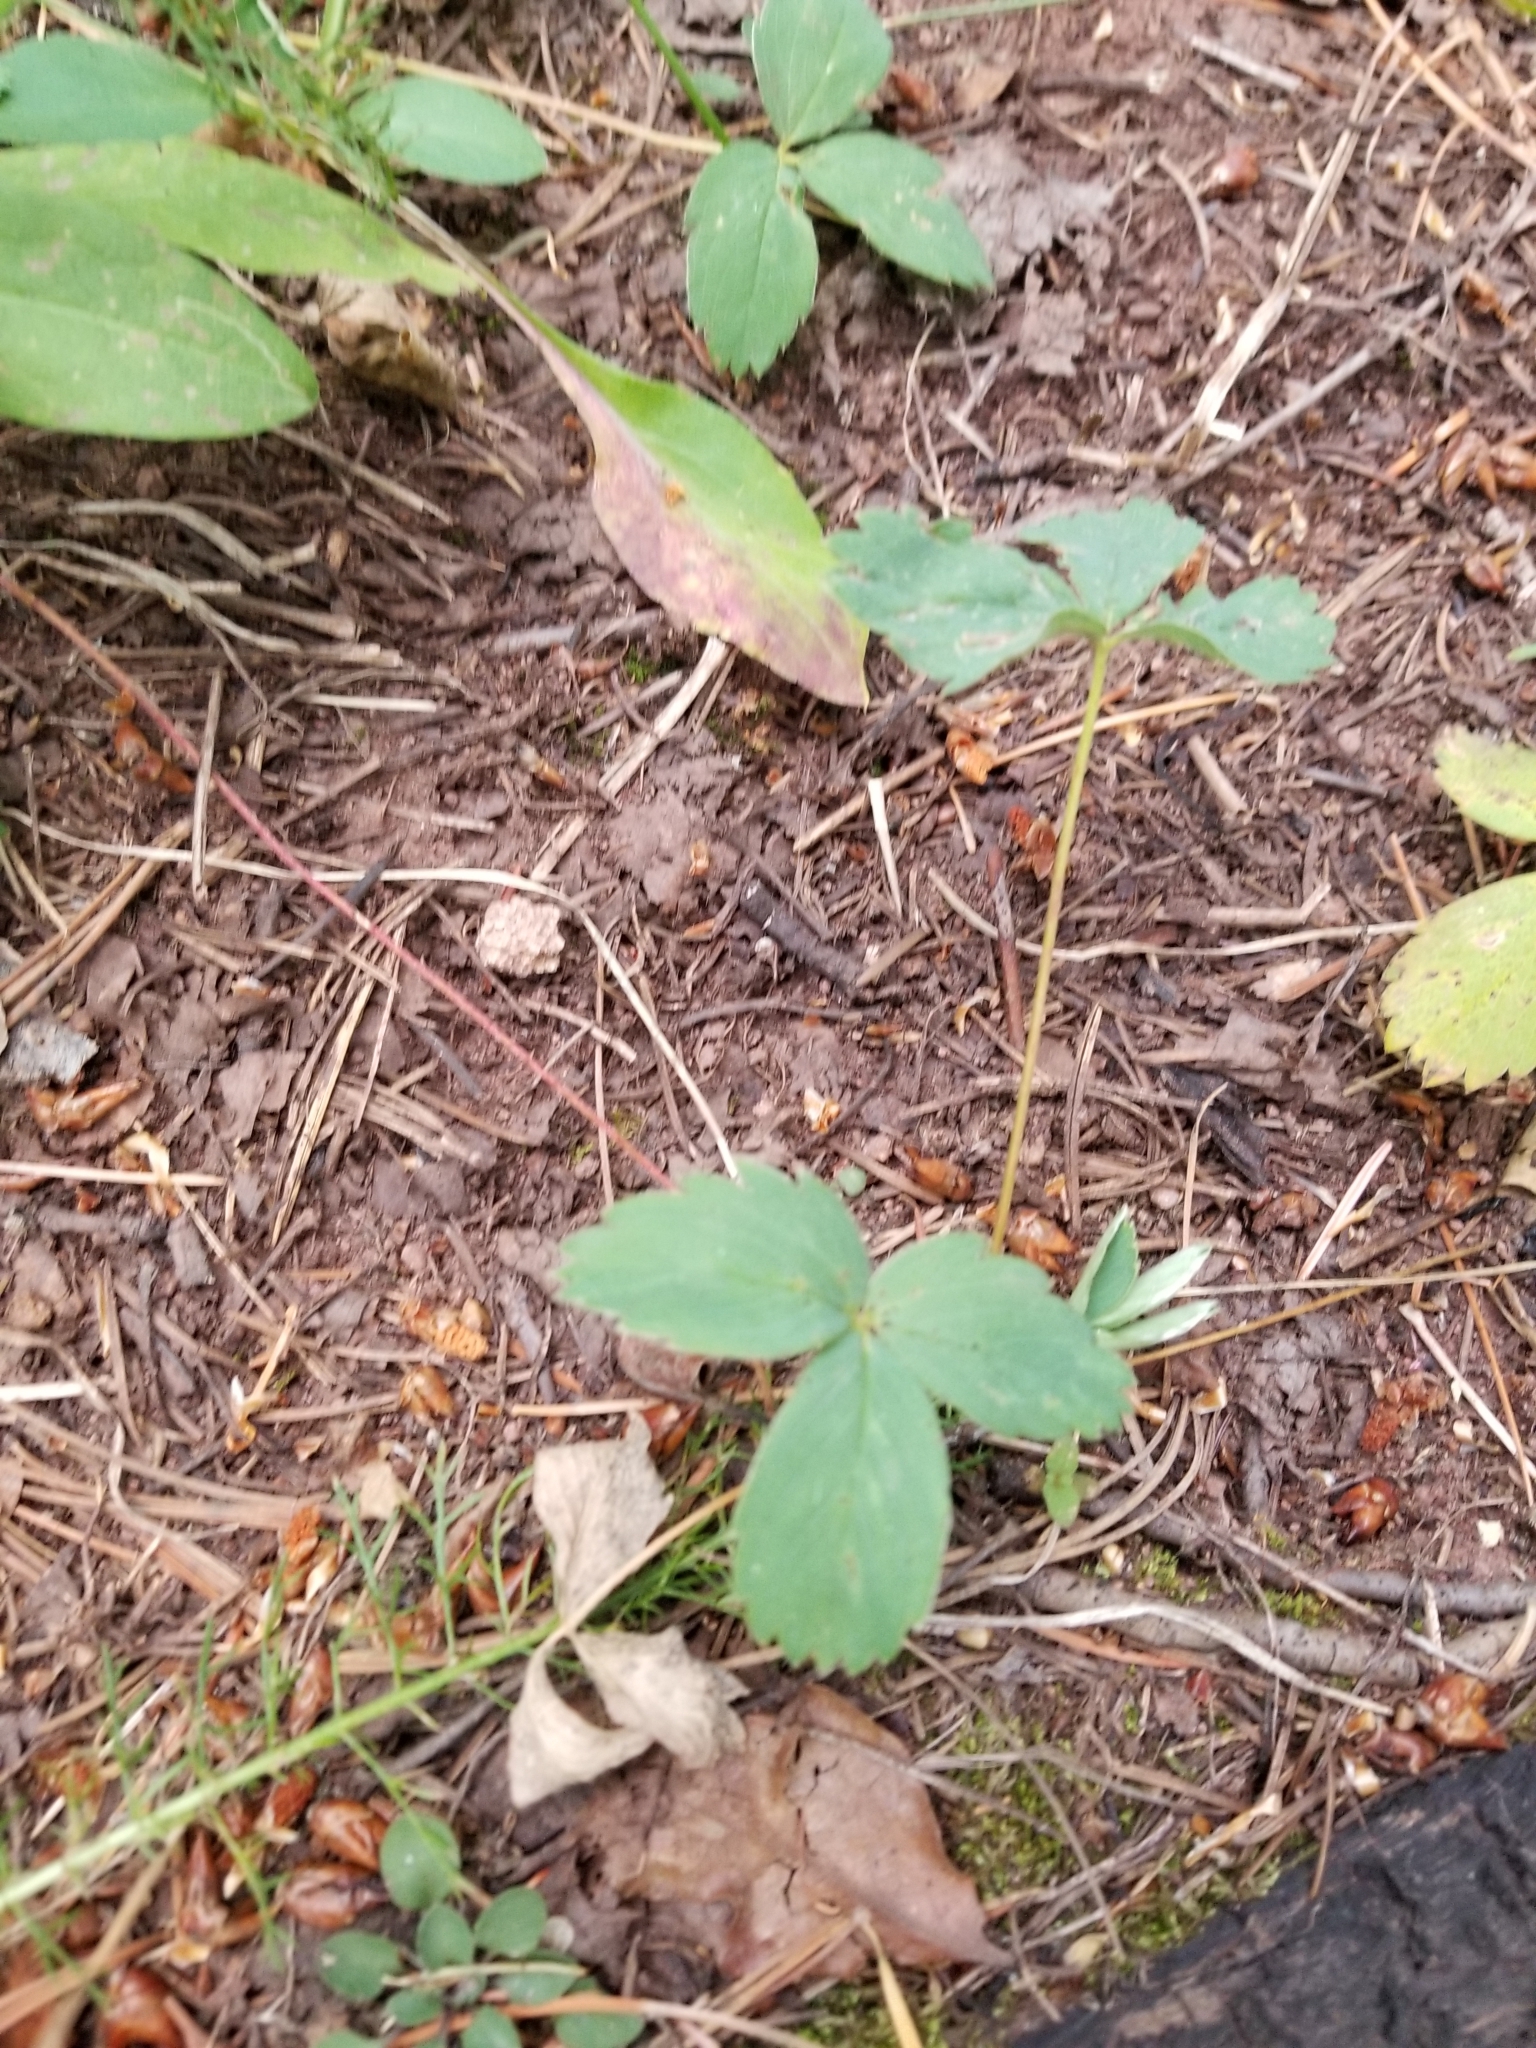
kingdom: Plantae
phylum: Tracheophyta
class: Magnoliopsida
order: Rosales
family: Rosaceae
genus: Fragaria
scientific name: Fragaria virginiana
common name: Thickleaved wild strawberry
